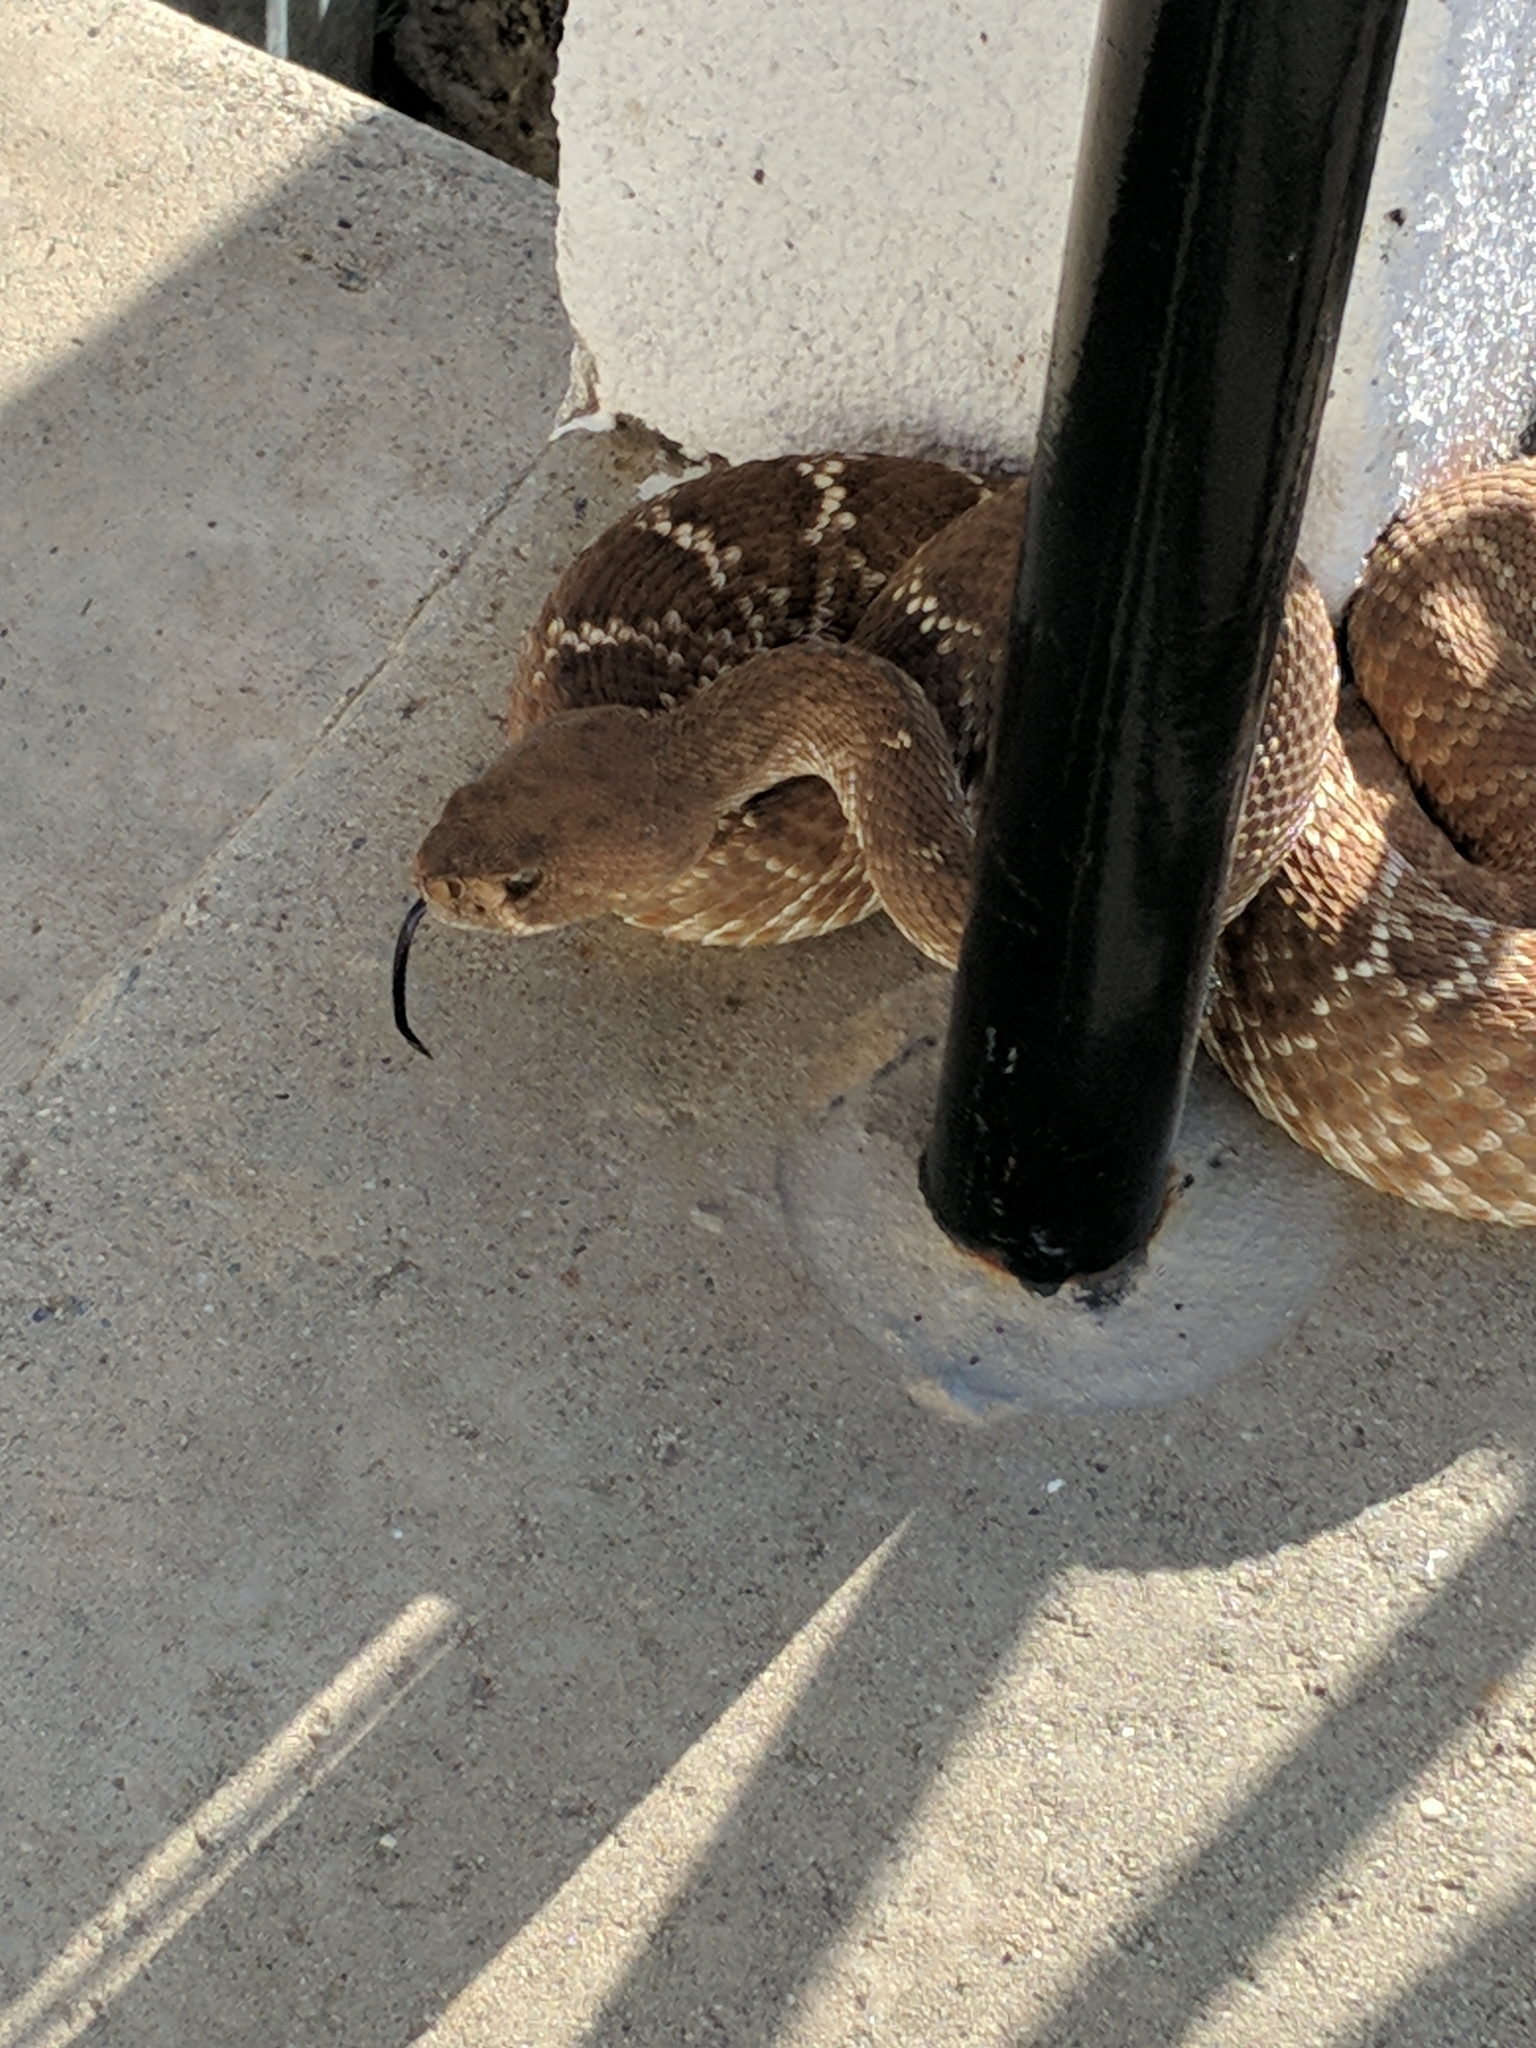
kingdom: Animalia
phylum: Chordata
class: Squamata
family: Viperidae
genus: Crotalus
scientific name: Crotalus ruber
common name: Red diamond rattlesnake
